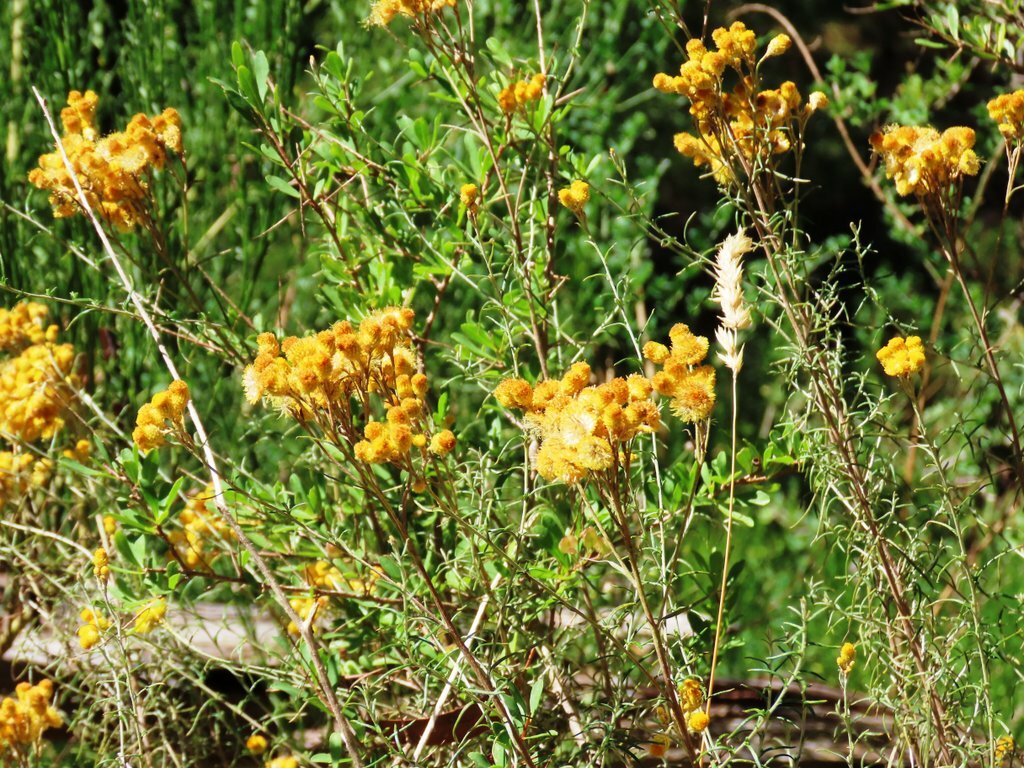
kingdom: Plantae
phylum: Tracheophyta
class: Magnoliopsida
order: Asterales
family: Asteraceae
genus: Chrysocephalum
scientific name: Chrysocephalum semipapposum
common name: Clustered everlasting
